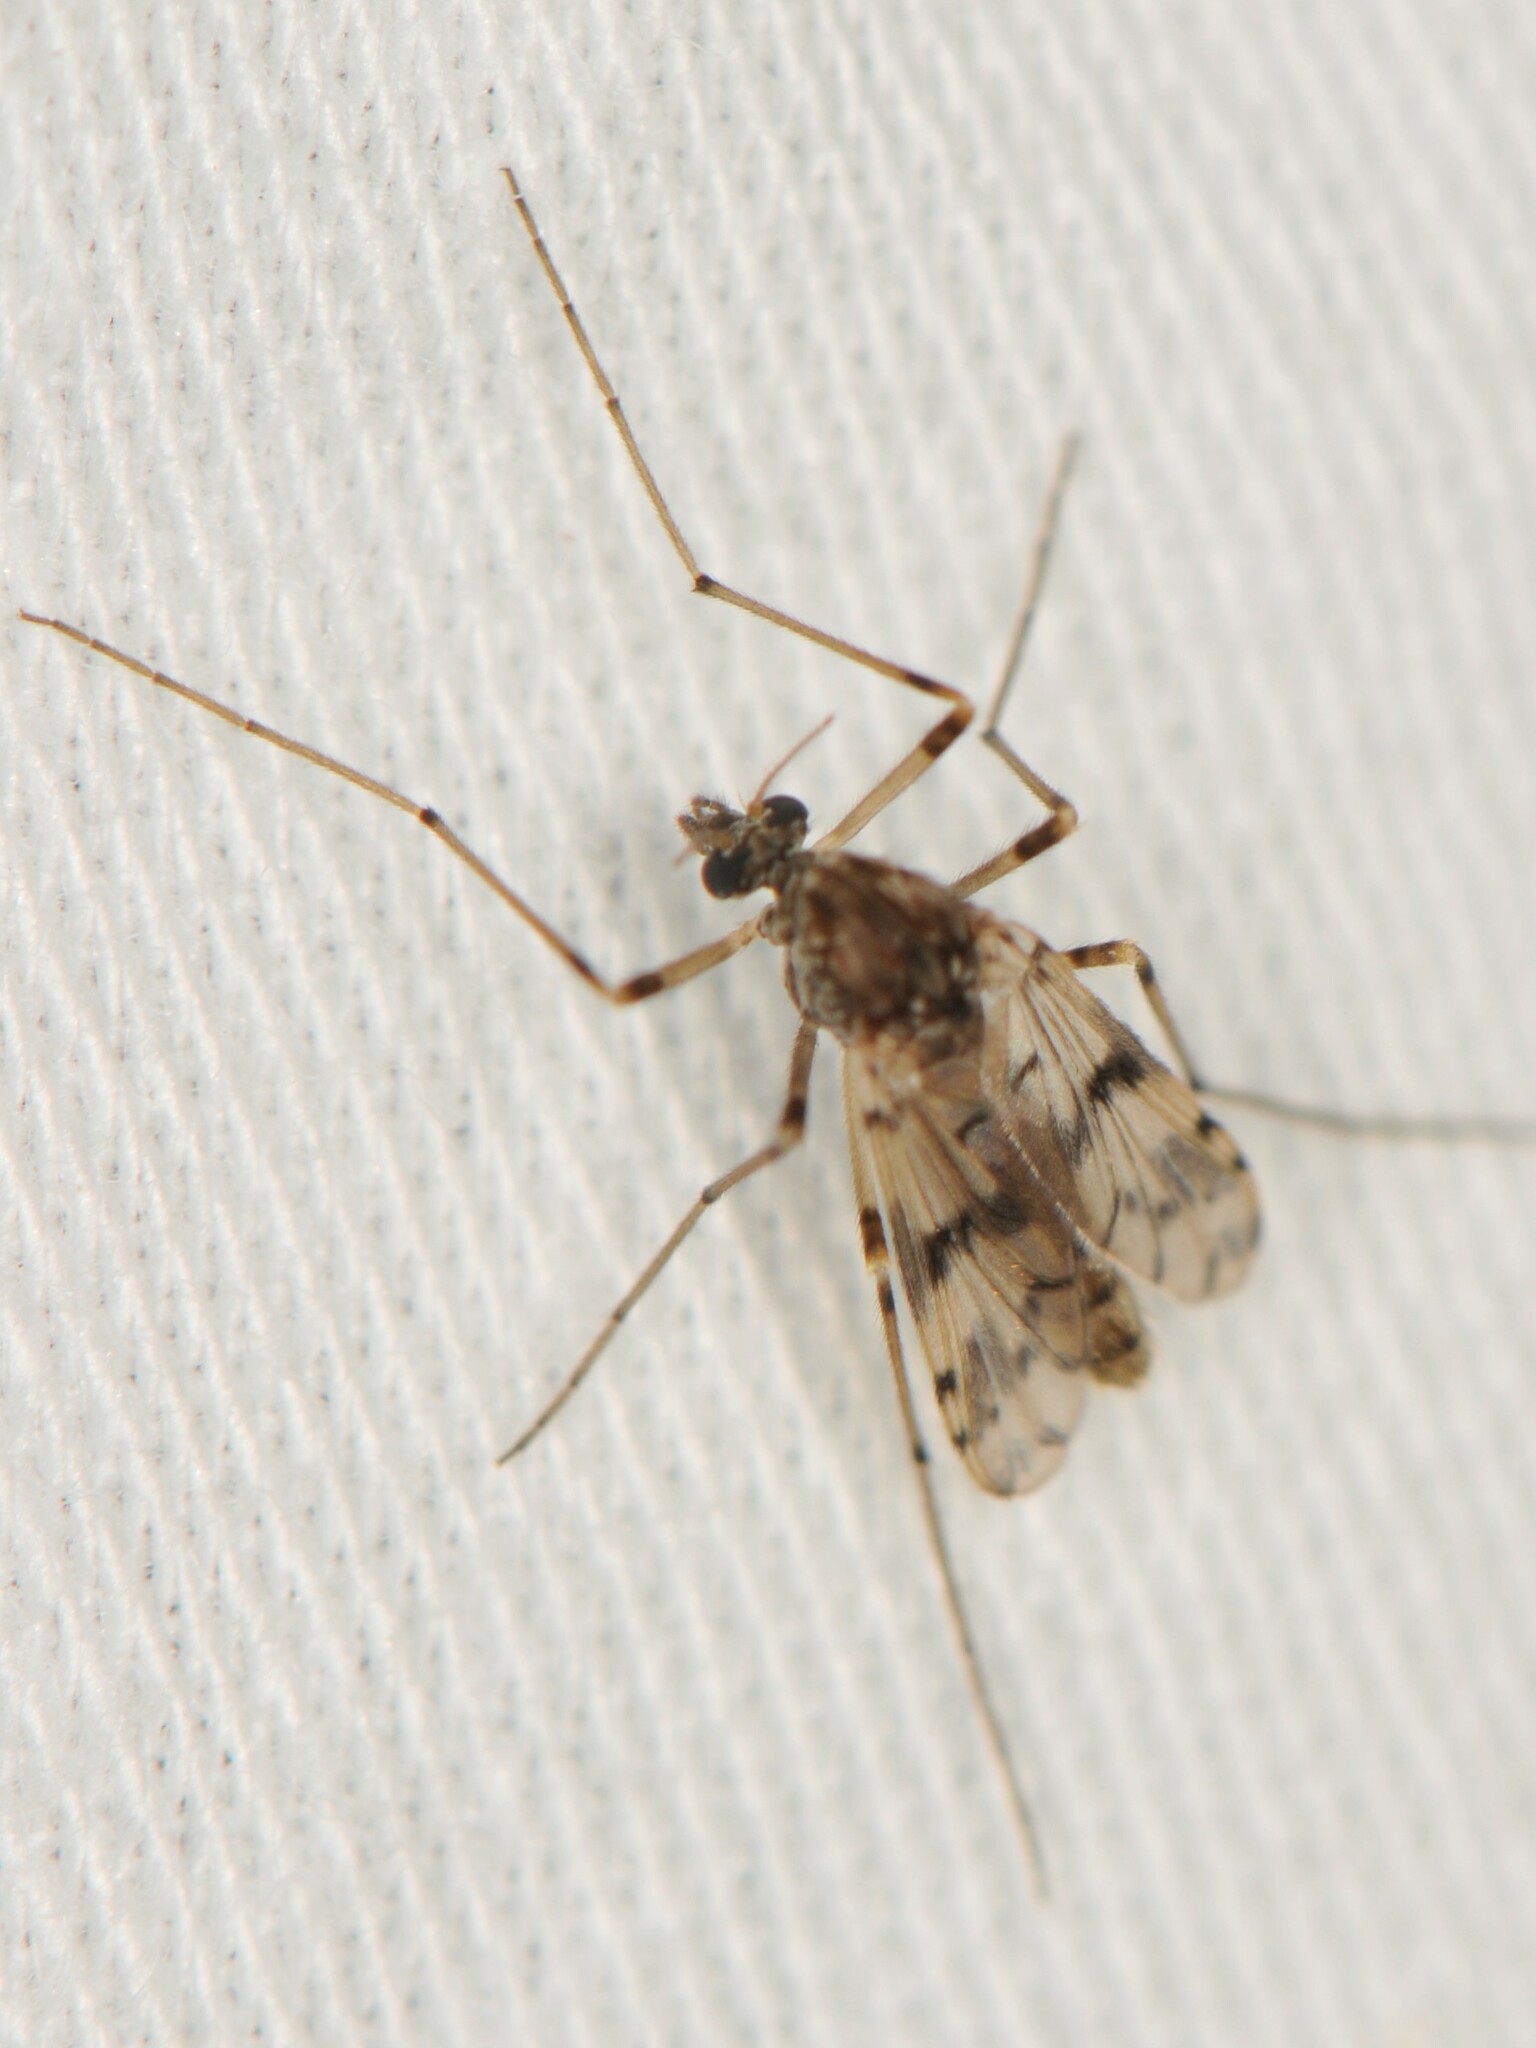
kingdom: Animalia
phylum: Arthropoda
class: Insecta
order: Diptera
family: Chironomidae
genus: Alotanypus
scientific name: Alotanypus venusta
